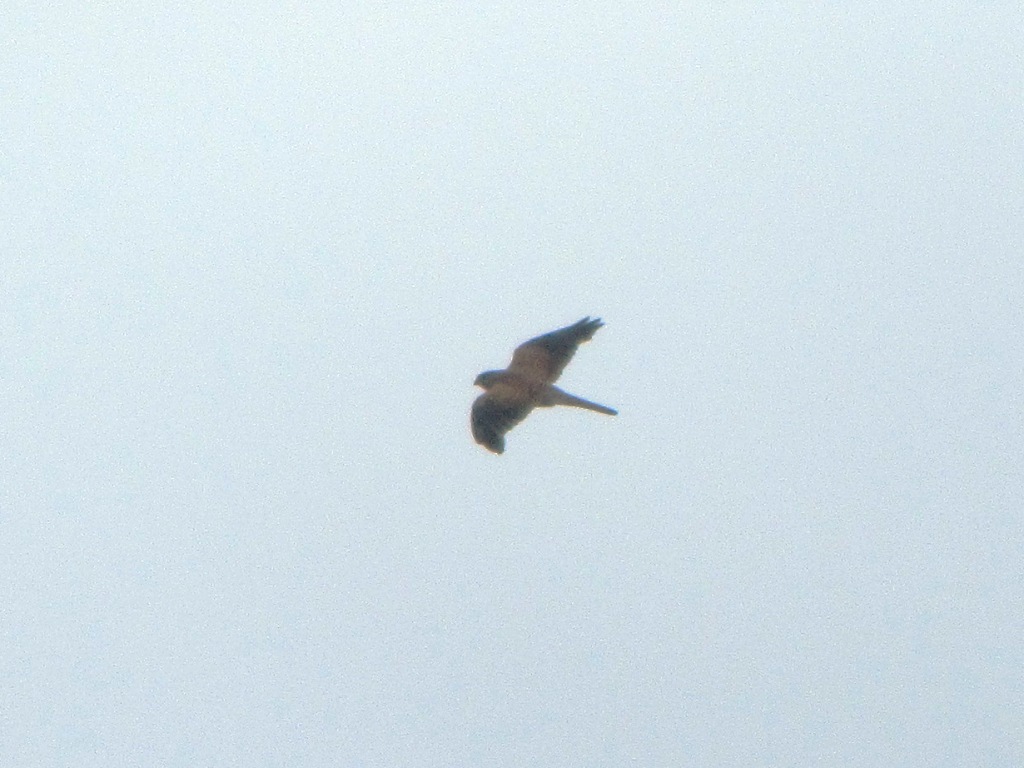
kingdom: Animalia
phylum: Chordata
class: Aves
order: Falconiformes
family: Falconidae
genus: Falco
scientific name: Falco tinnunculus
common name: Common kestrel
